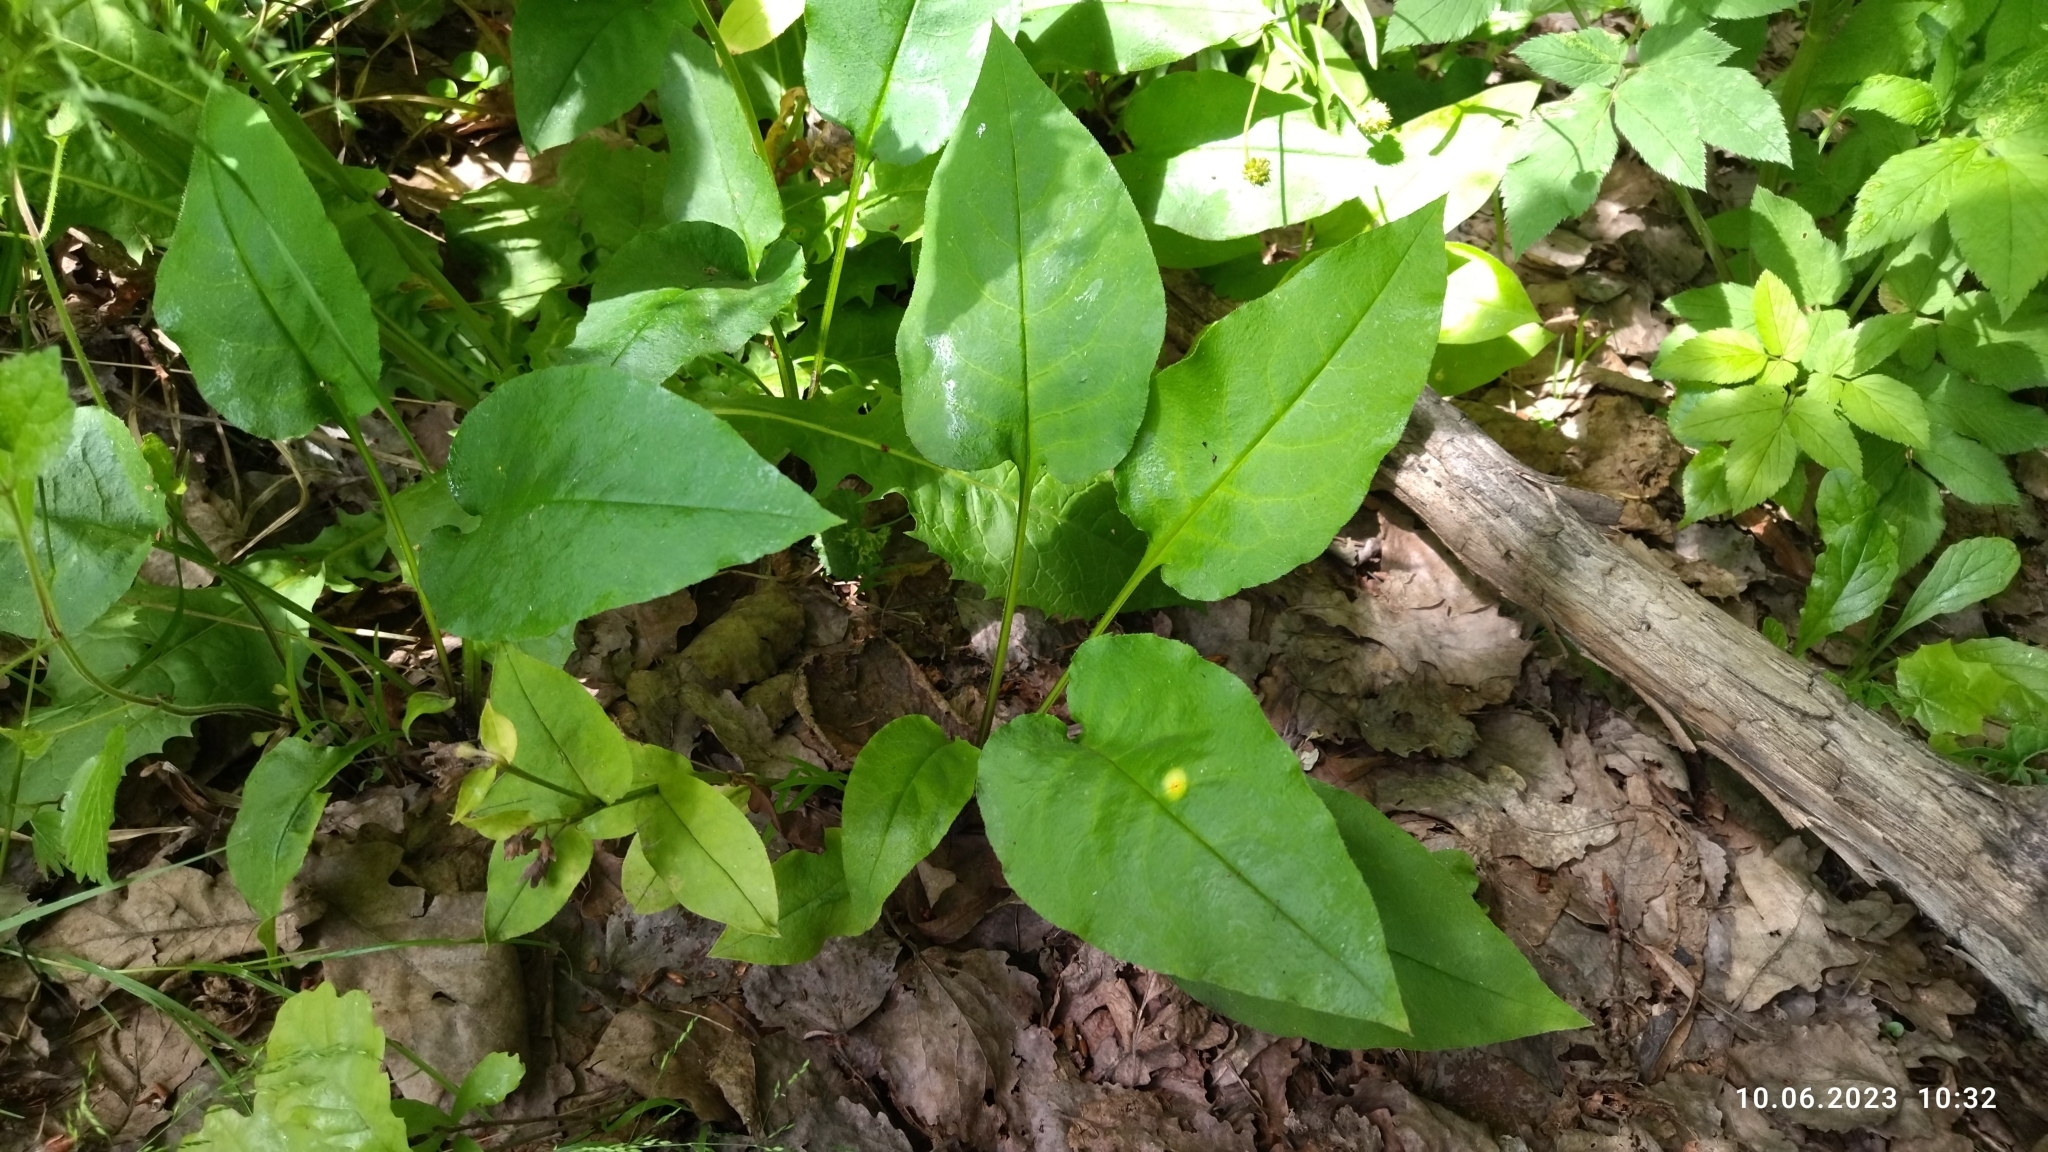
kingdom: Plantae
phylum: Tracheophyta
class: Magnoliopsida
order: Boraginales
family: Boraginaceae
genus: Pulmonaria
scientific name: Pulmonaria obscura
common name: Suffolk lungwort
